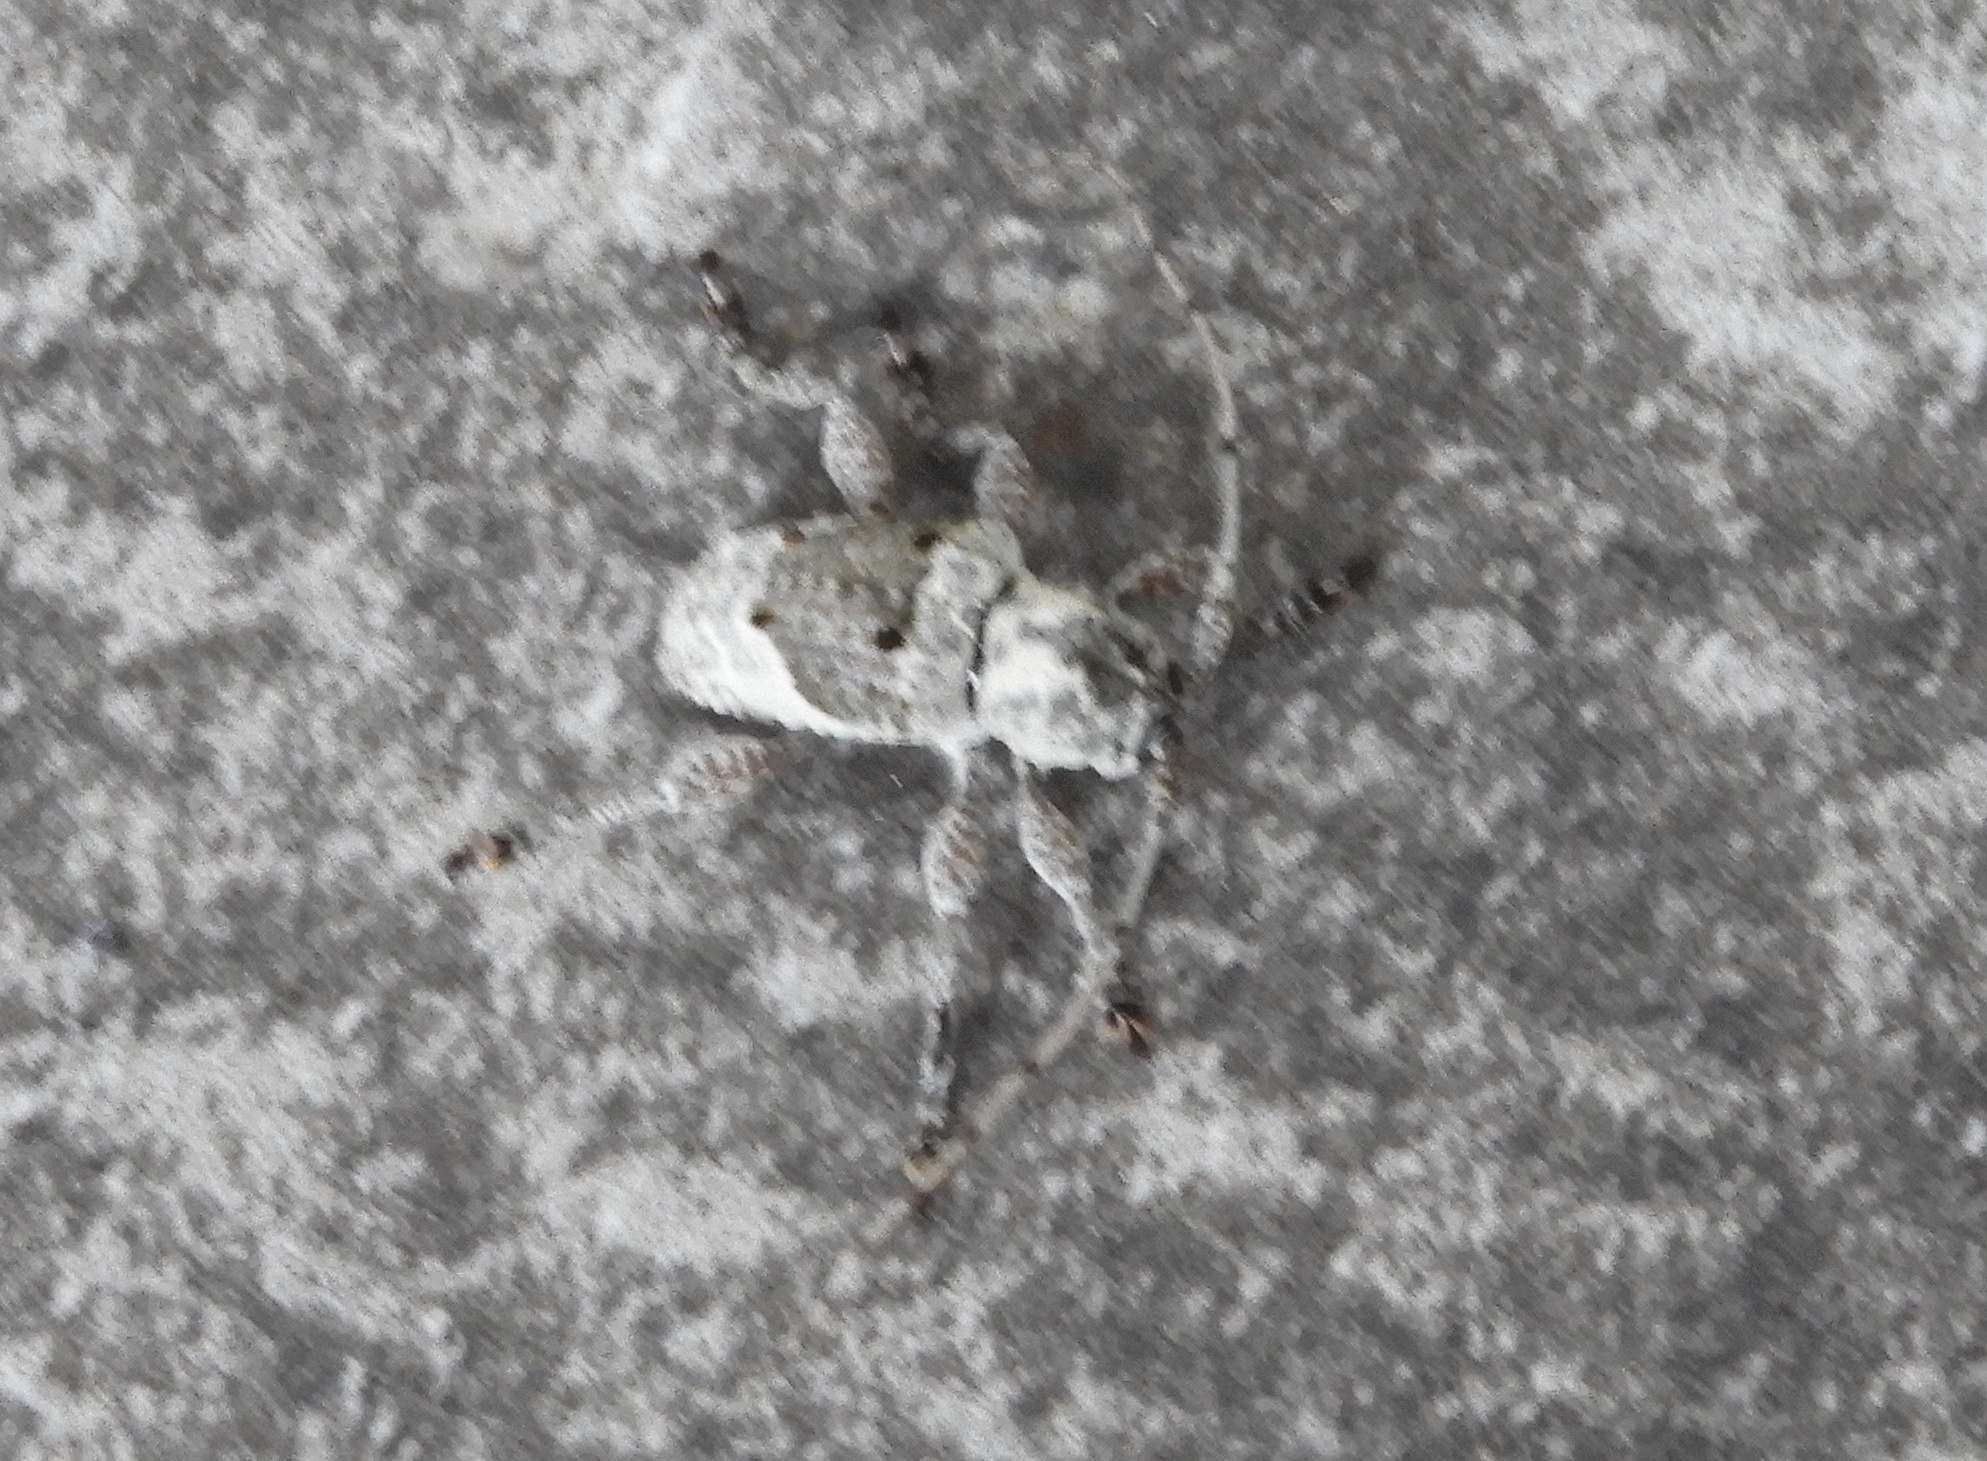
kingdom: Animalia
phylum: Arthropoda
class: Insecta
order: Coleoptera
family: Cerambycidae
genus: Hypomia
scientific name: Hypomia
